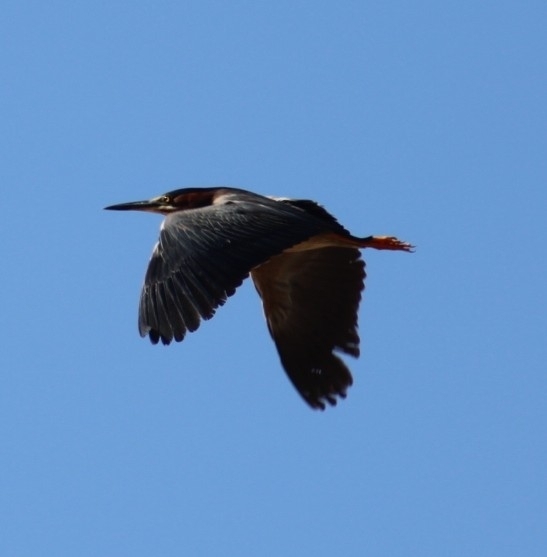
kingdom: Animalia
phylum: Chordata
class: Aves
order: Pelecaniformes
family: Ardeidae
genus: Butorides
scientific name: Butorides virescens
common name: Green heron
